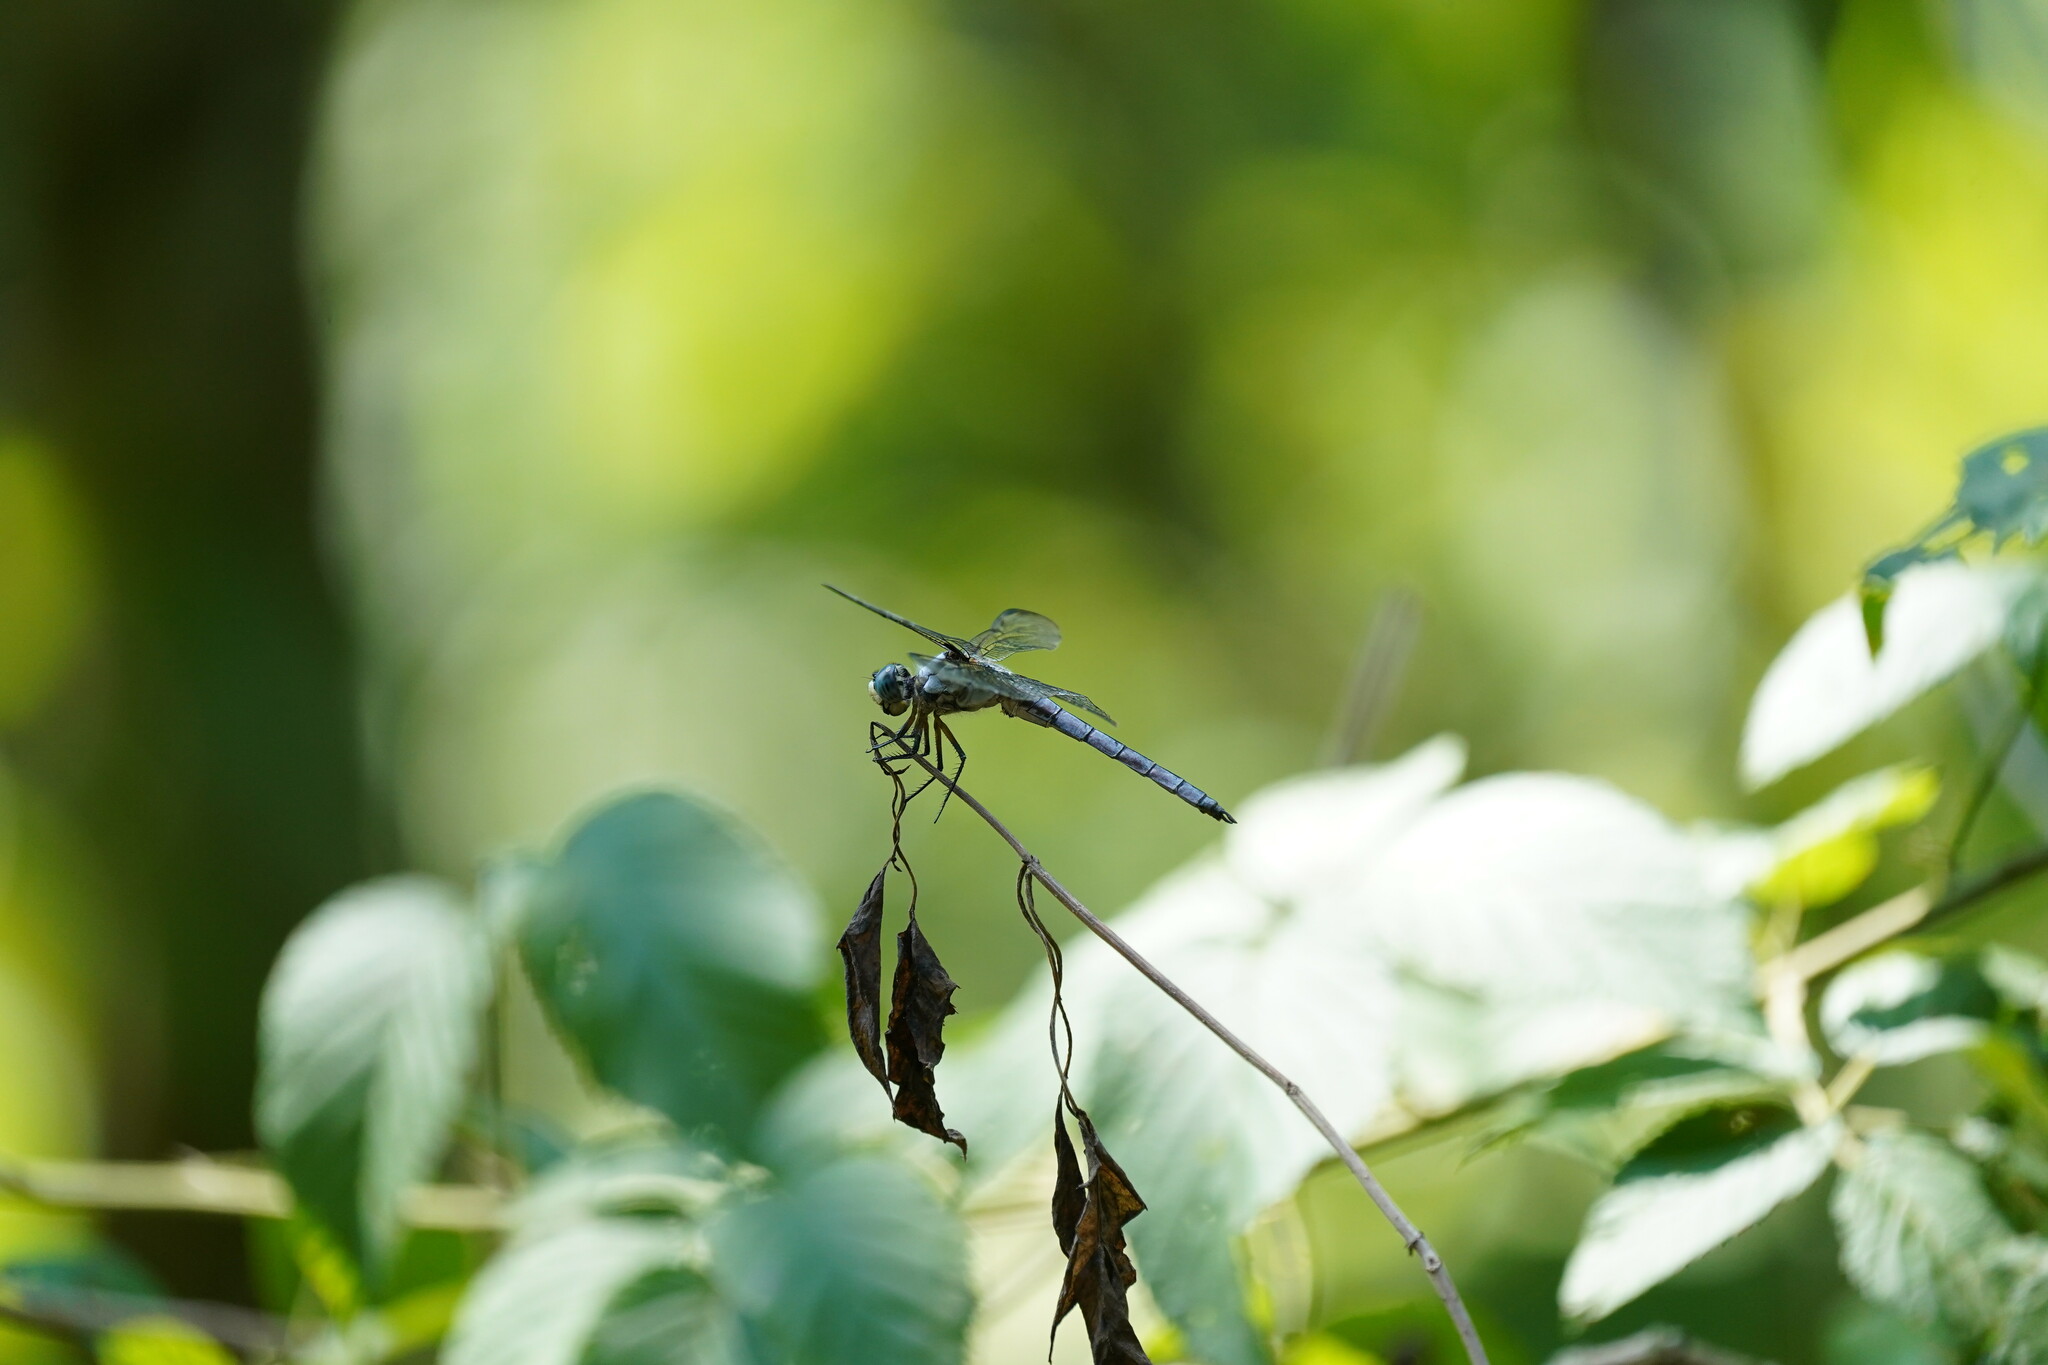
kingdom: Animalia
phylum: Arthropoda
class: Insecta
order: Odonata
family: Libellulidae
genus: Libellula
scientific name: Libellula vibrans
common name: Great blue skimmer
